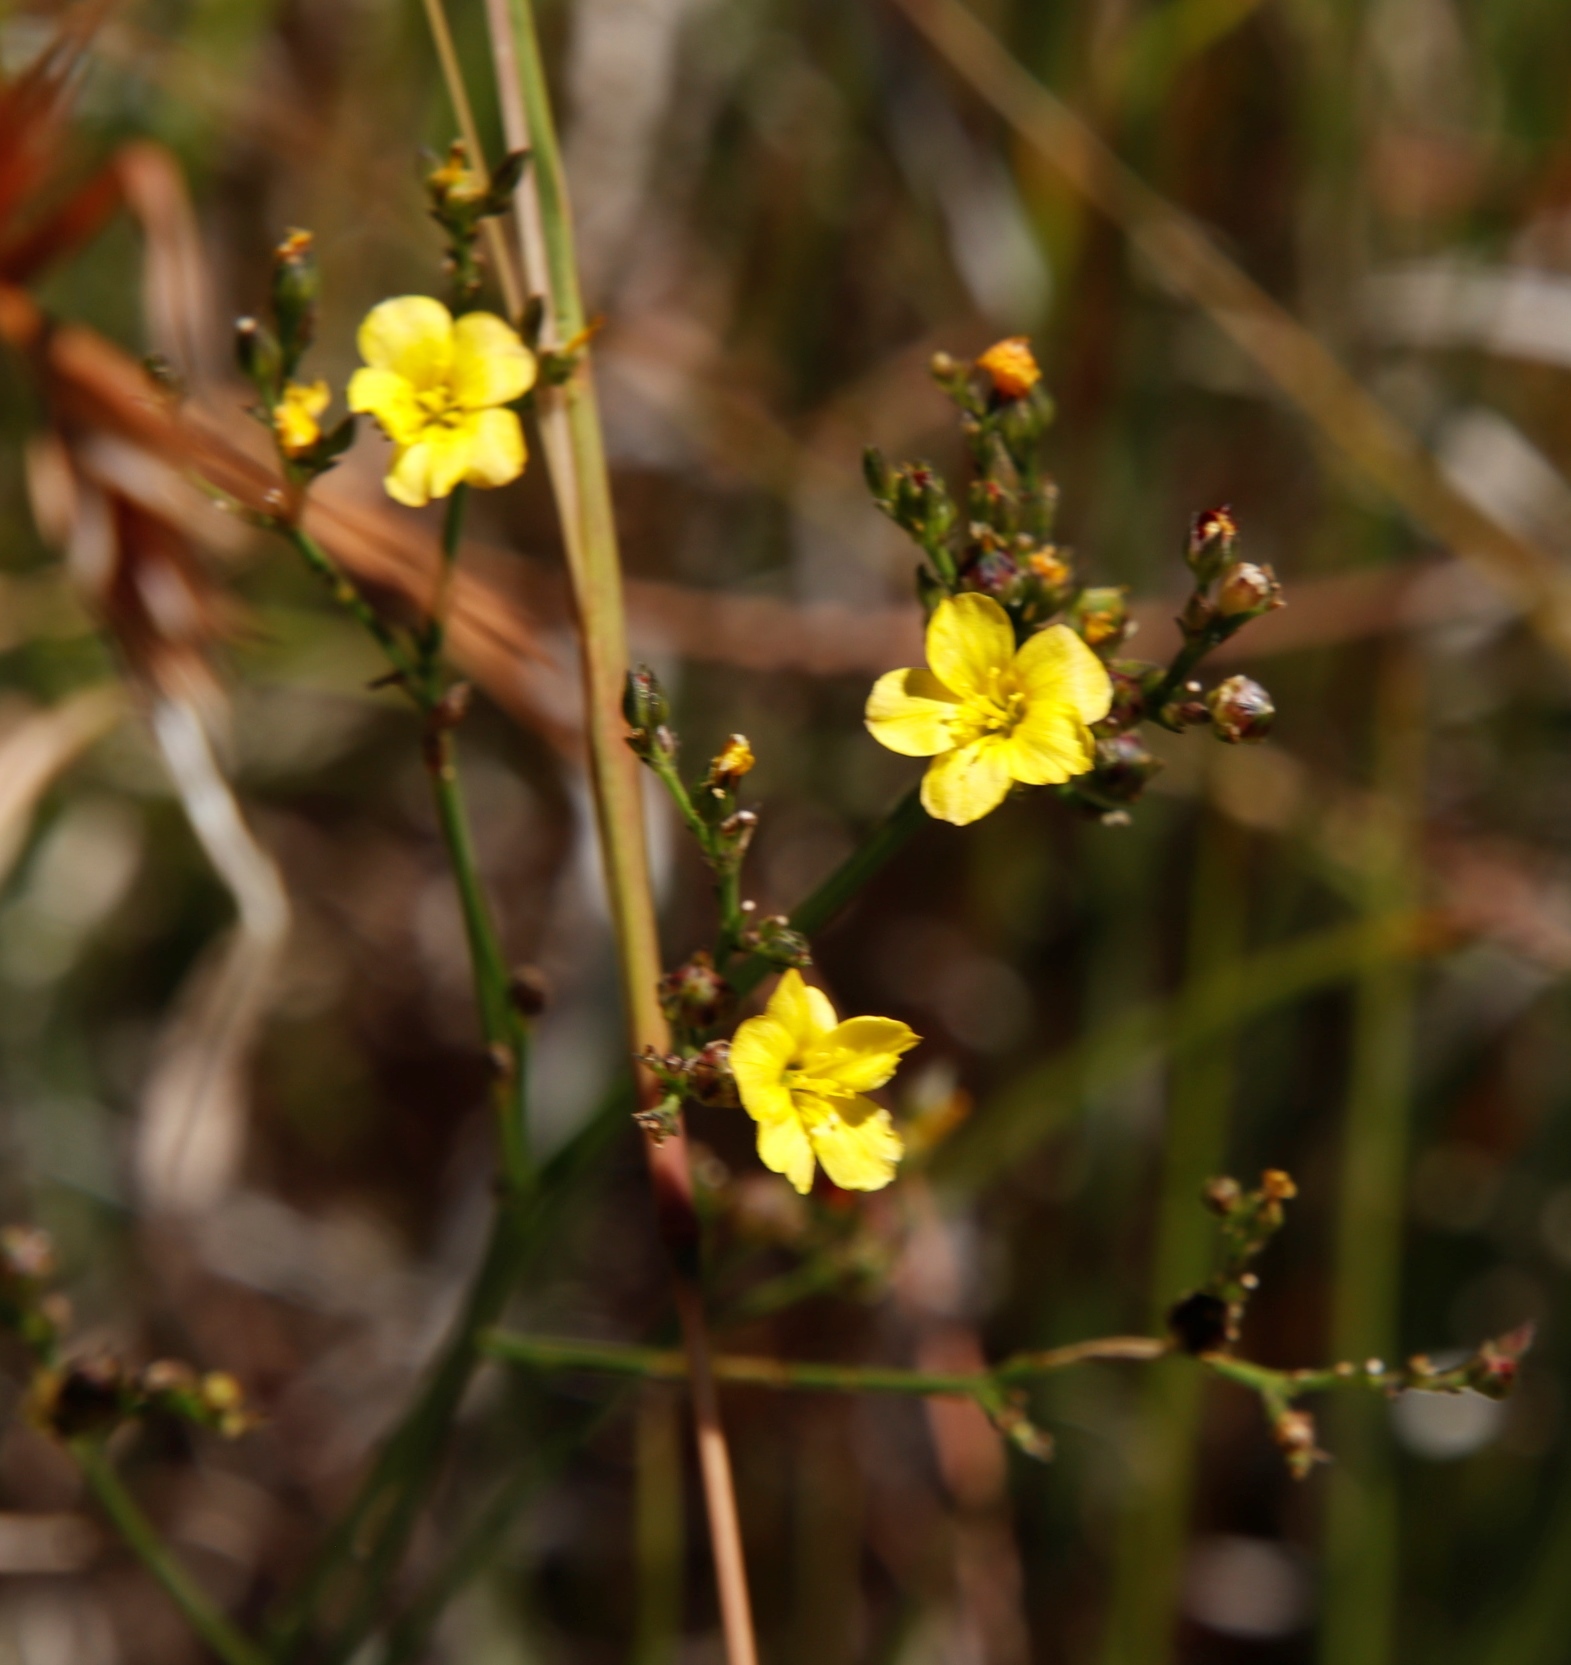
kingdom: Plantae
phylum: Tracheophyta
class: Magnoliopsida
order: Malpighiales
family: Linaceae
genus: Linum
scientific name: Linum thunbergii
